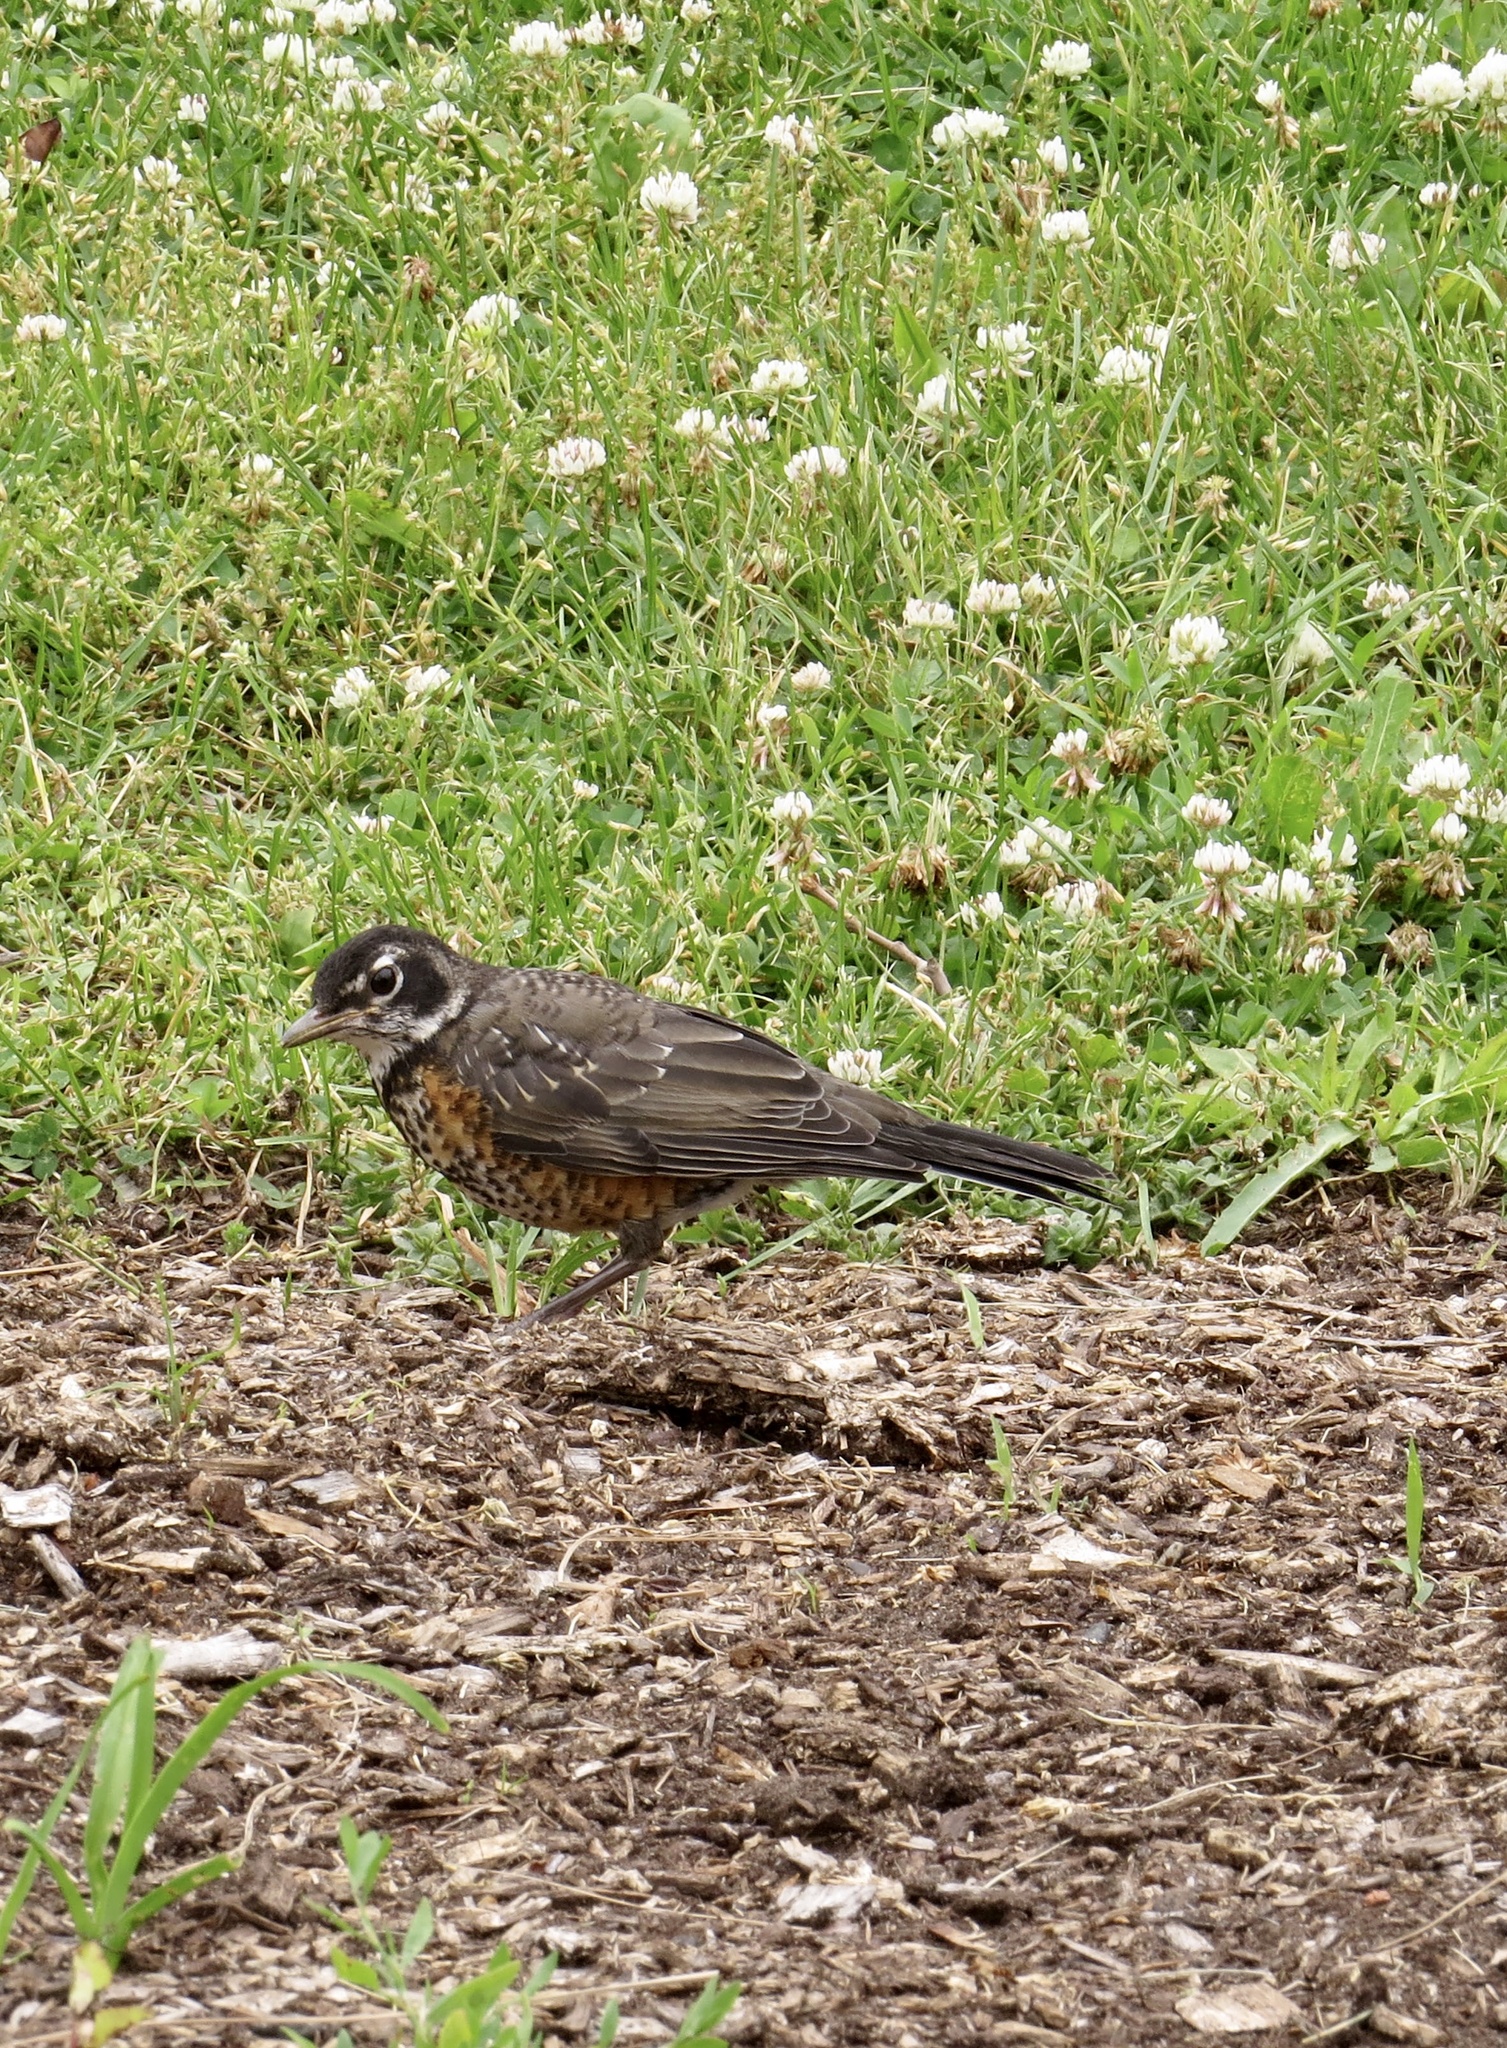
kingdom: Animalia
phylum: Chordata
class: Aves
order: Passeriformes
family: Turdidae
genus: Turdus
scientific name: Turdus migratorius
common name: American robin
